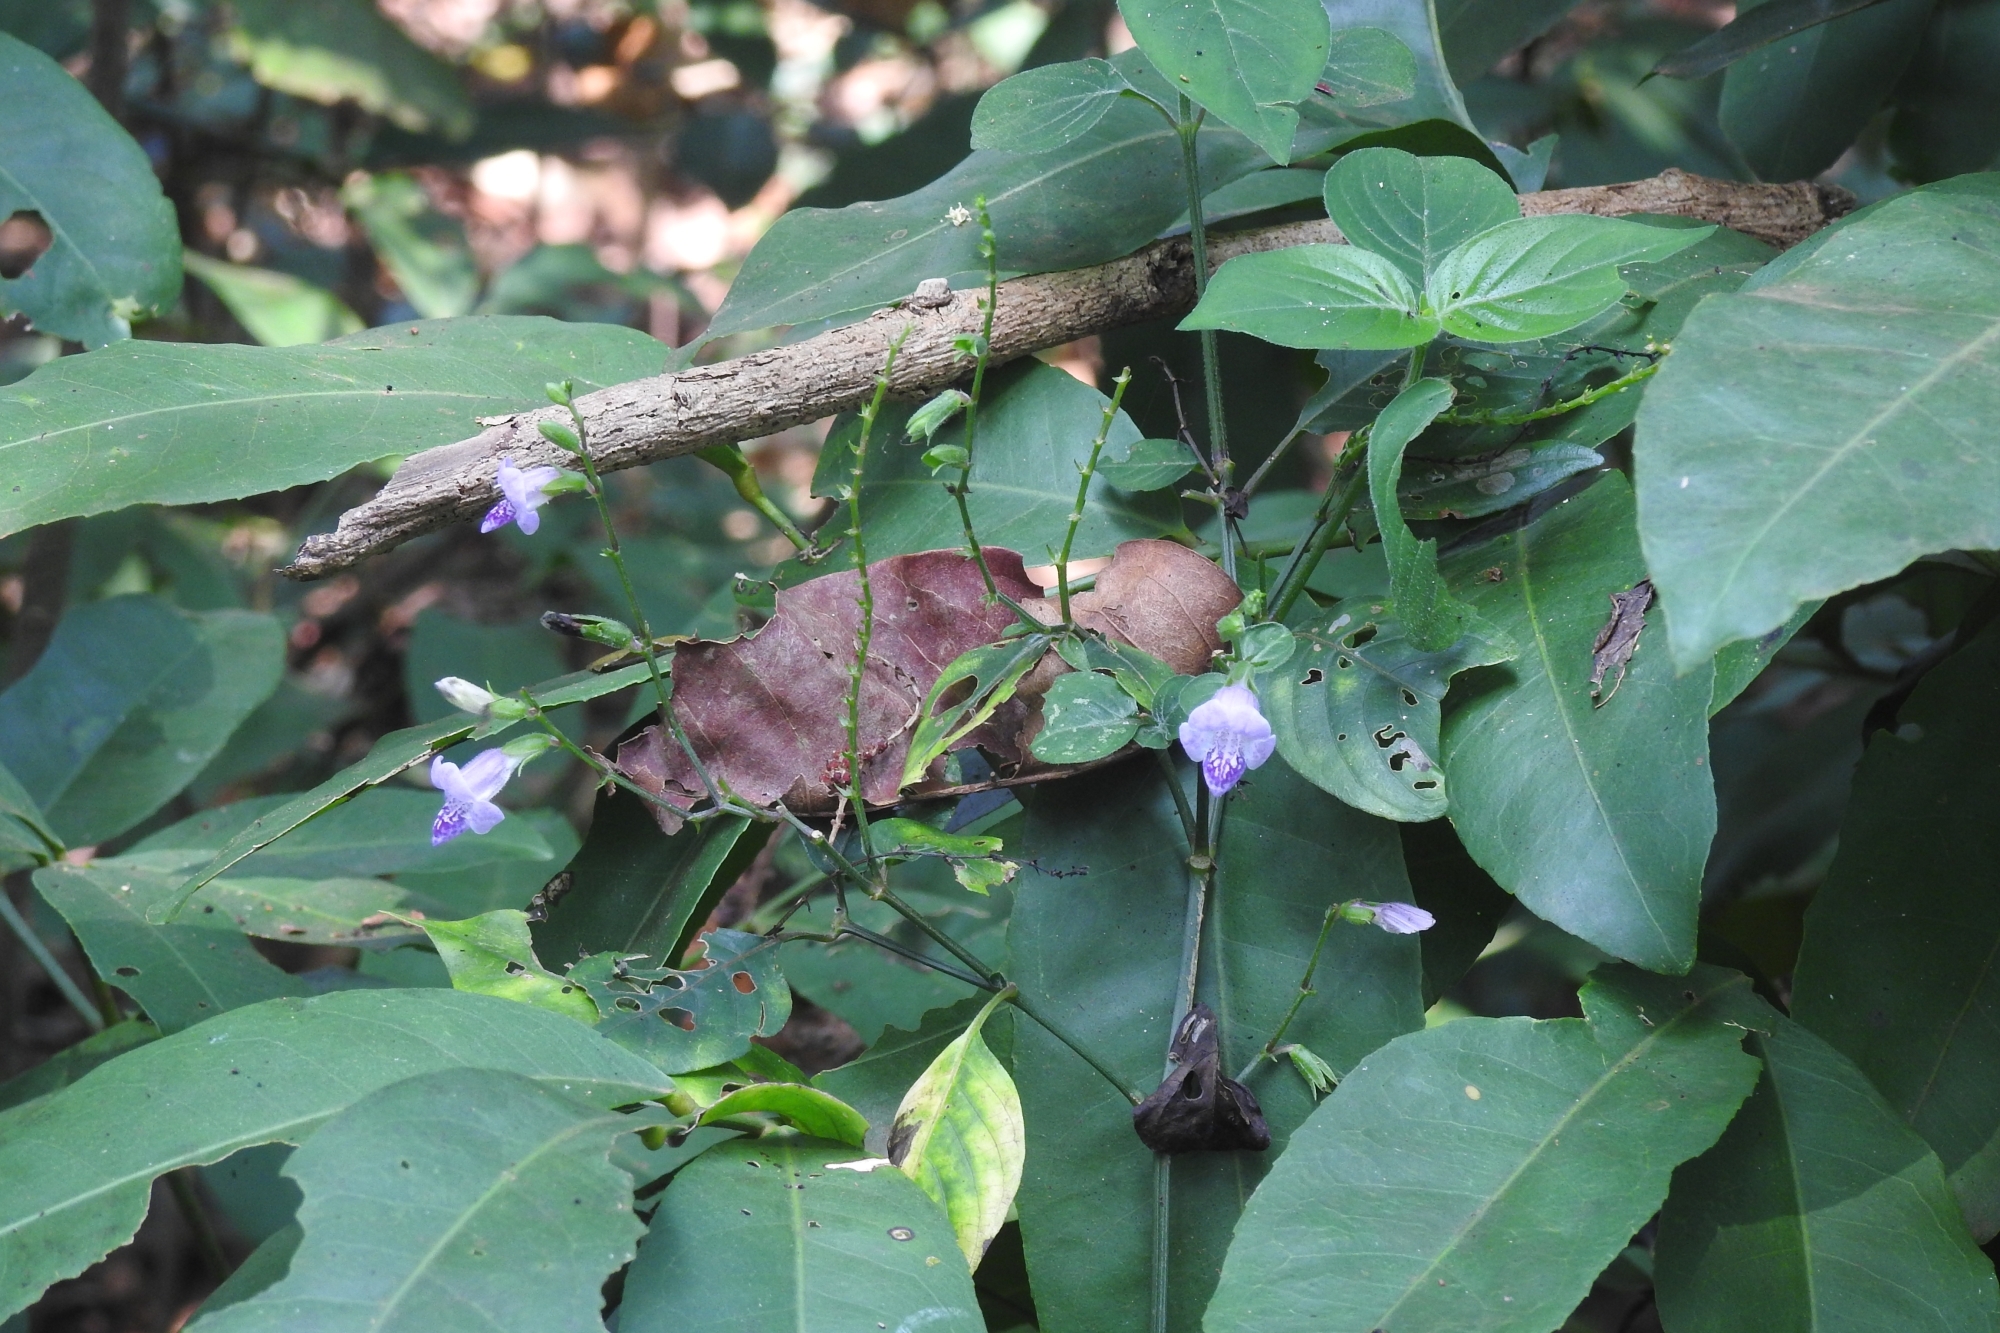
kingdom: Plantae
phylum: Tracheophyta
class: Magnoliopsida
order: Lamiales
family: Acanthaceae
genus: Asystasia
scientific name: Asystasia dalzelliana
